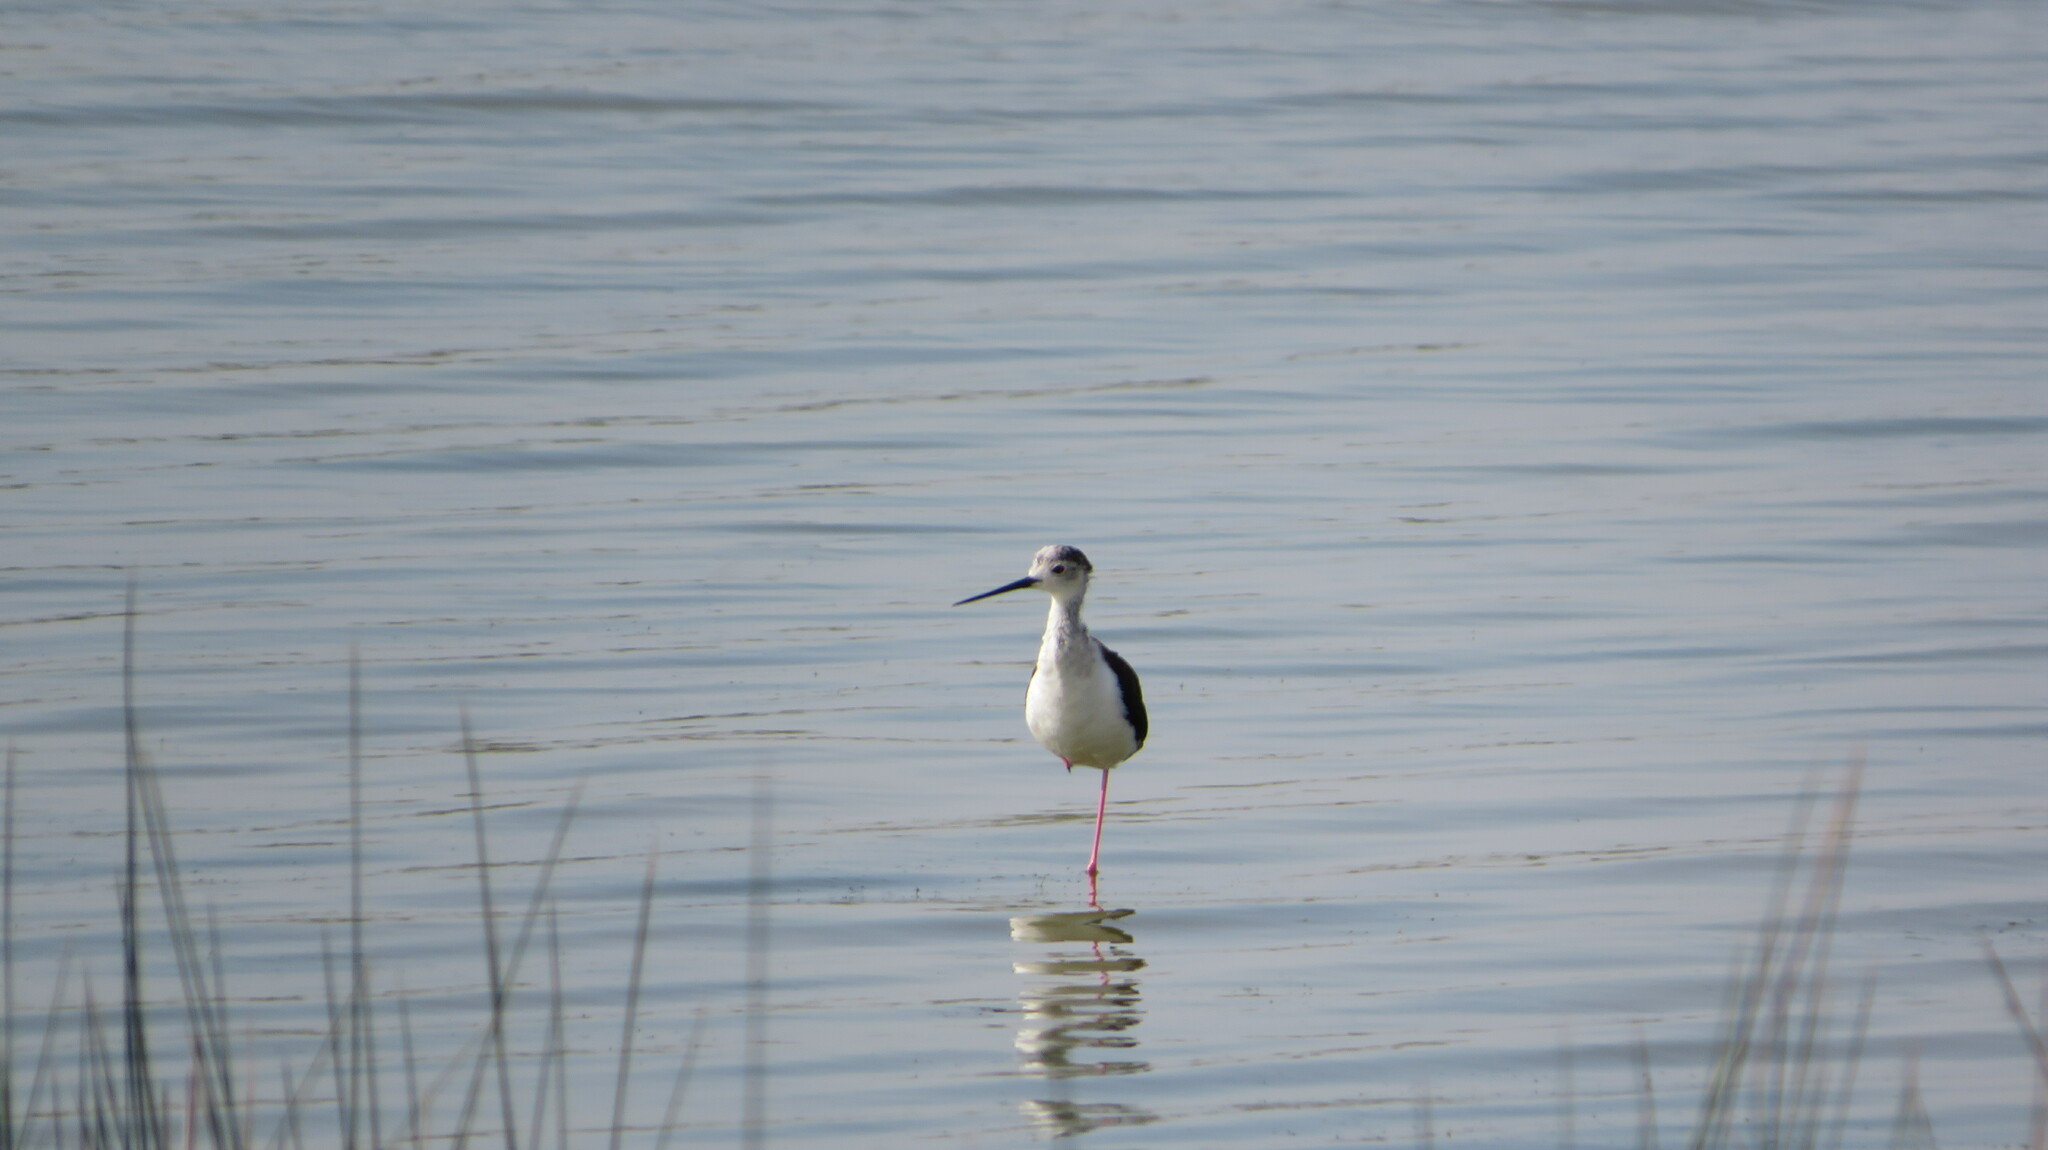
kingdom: Animalia
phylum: Chordata
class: Aves
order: Charadriiformes
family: Recurvirostridae
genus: Himantopus
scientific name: Himantopus himantopus
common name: Black-winged stilt
